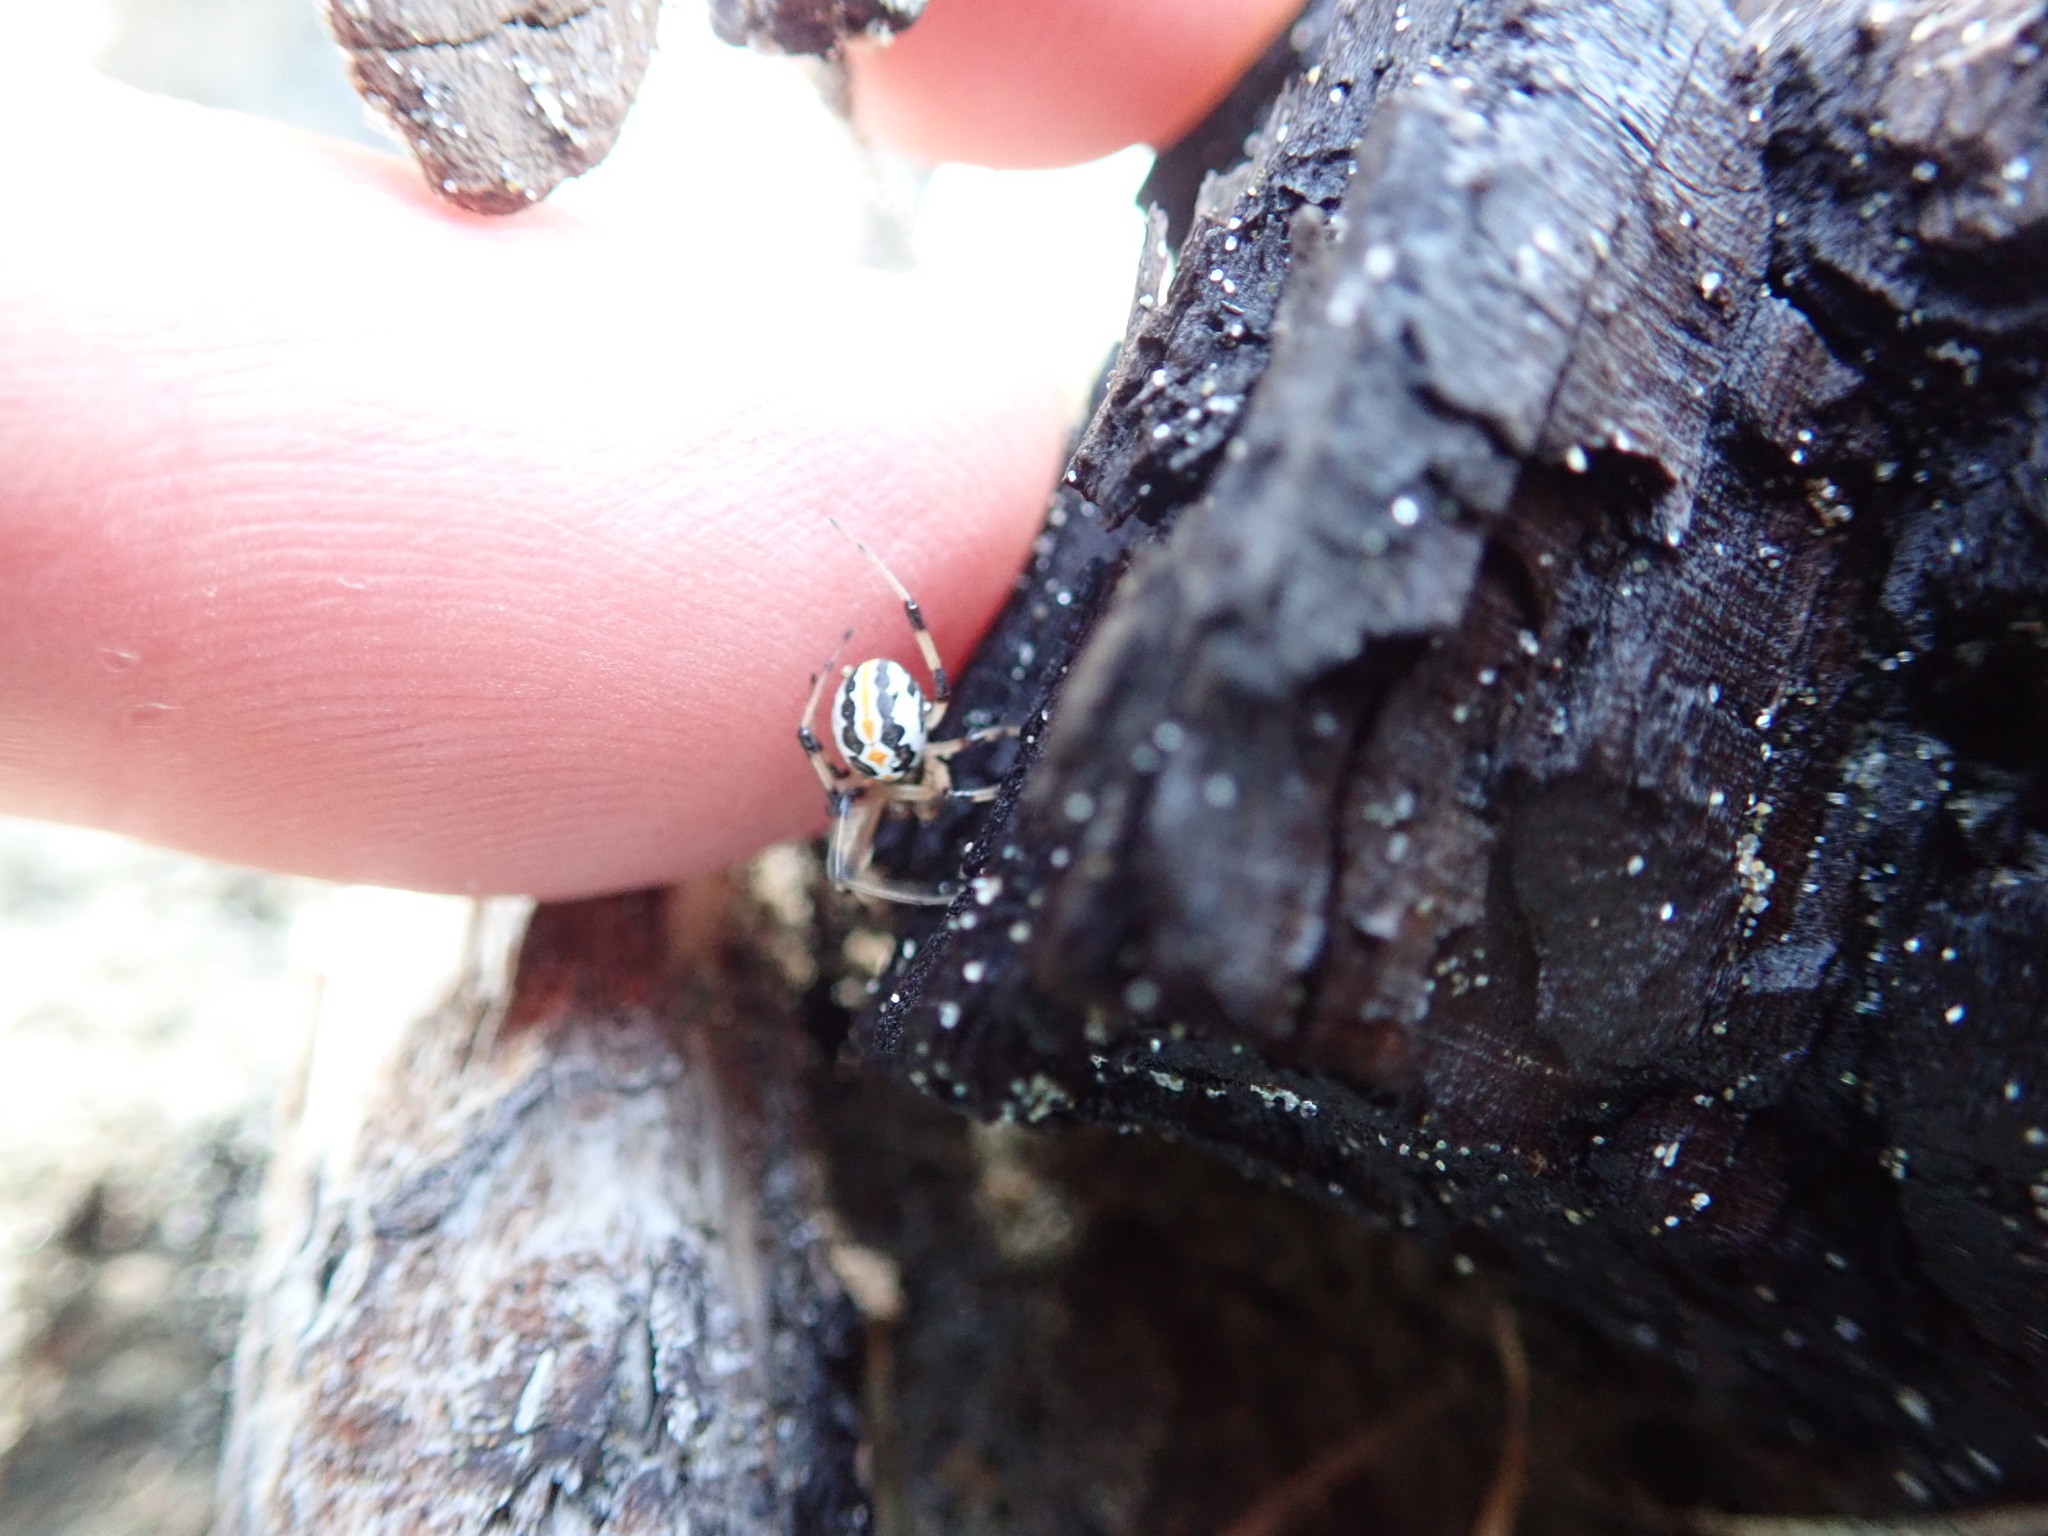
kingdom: Animalia
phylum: Arthropoda
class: Arachnida
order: Araneae
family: Theridiidae
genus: Latrodectus
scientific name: Latrodectus katipo
